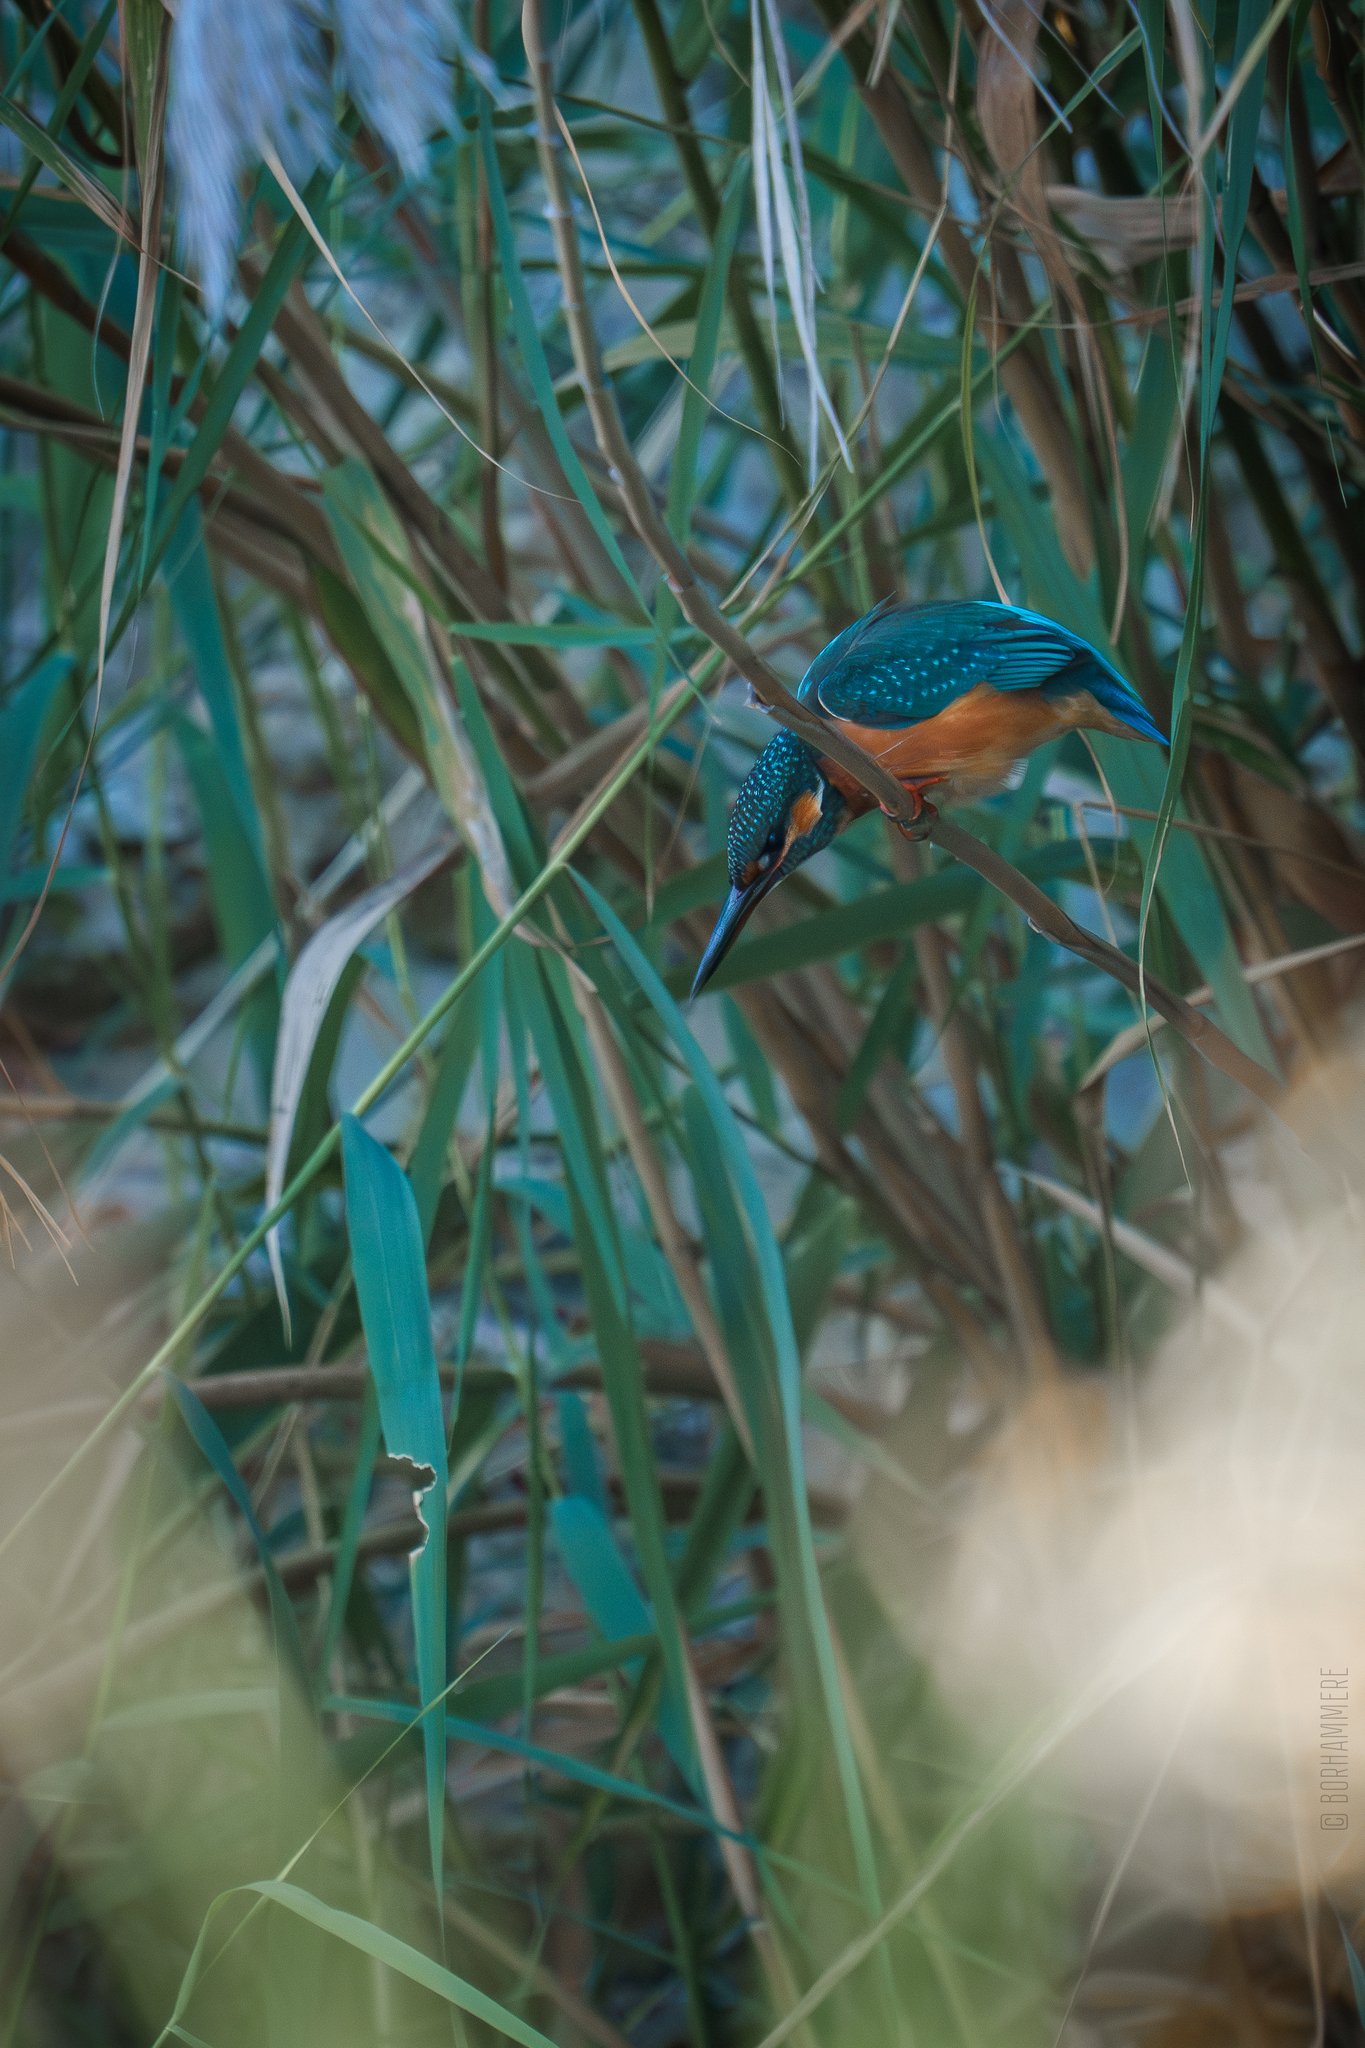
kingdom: Animalia
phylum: Chordata
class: Aves
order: Coraciiformes
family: Alcedinidae
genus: Alcedo
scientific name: Alcedo atthis
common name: Common kingfisher
